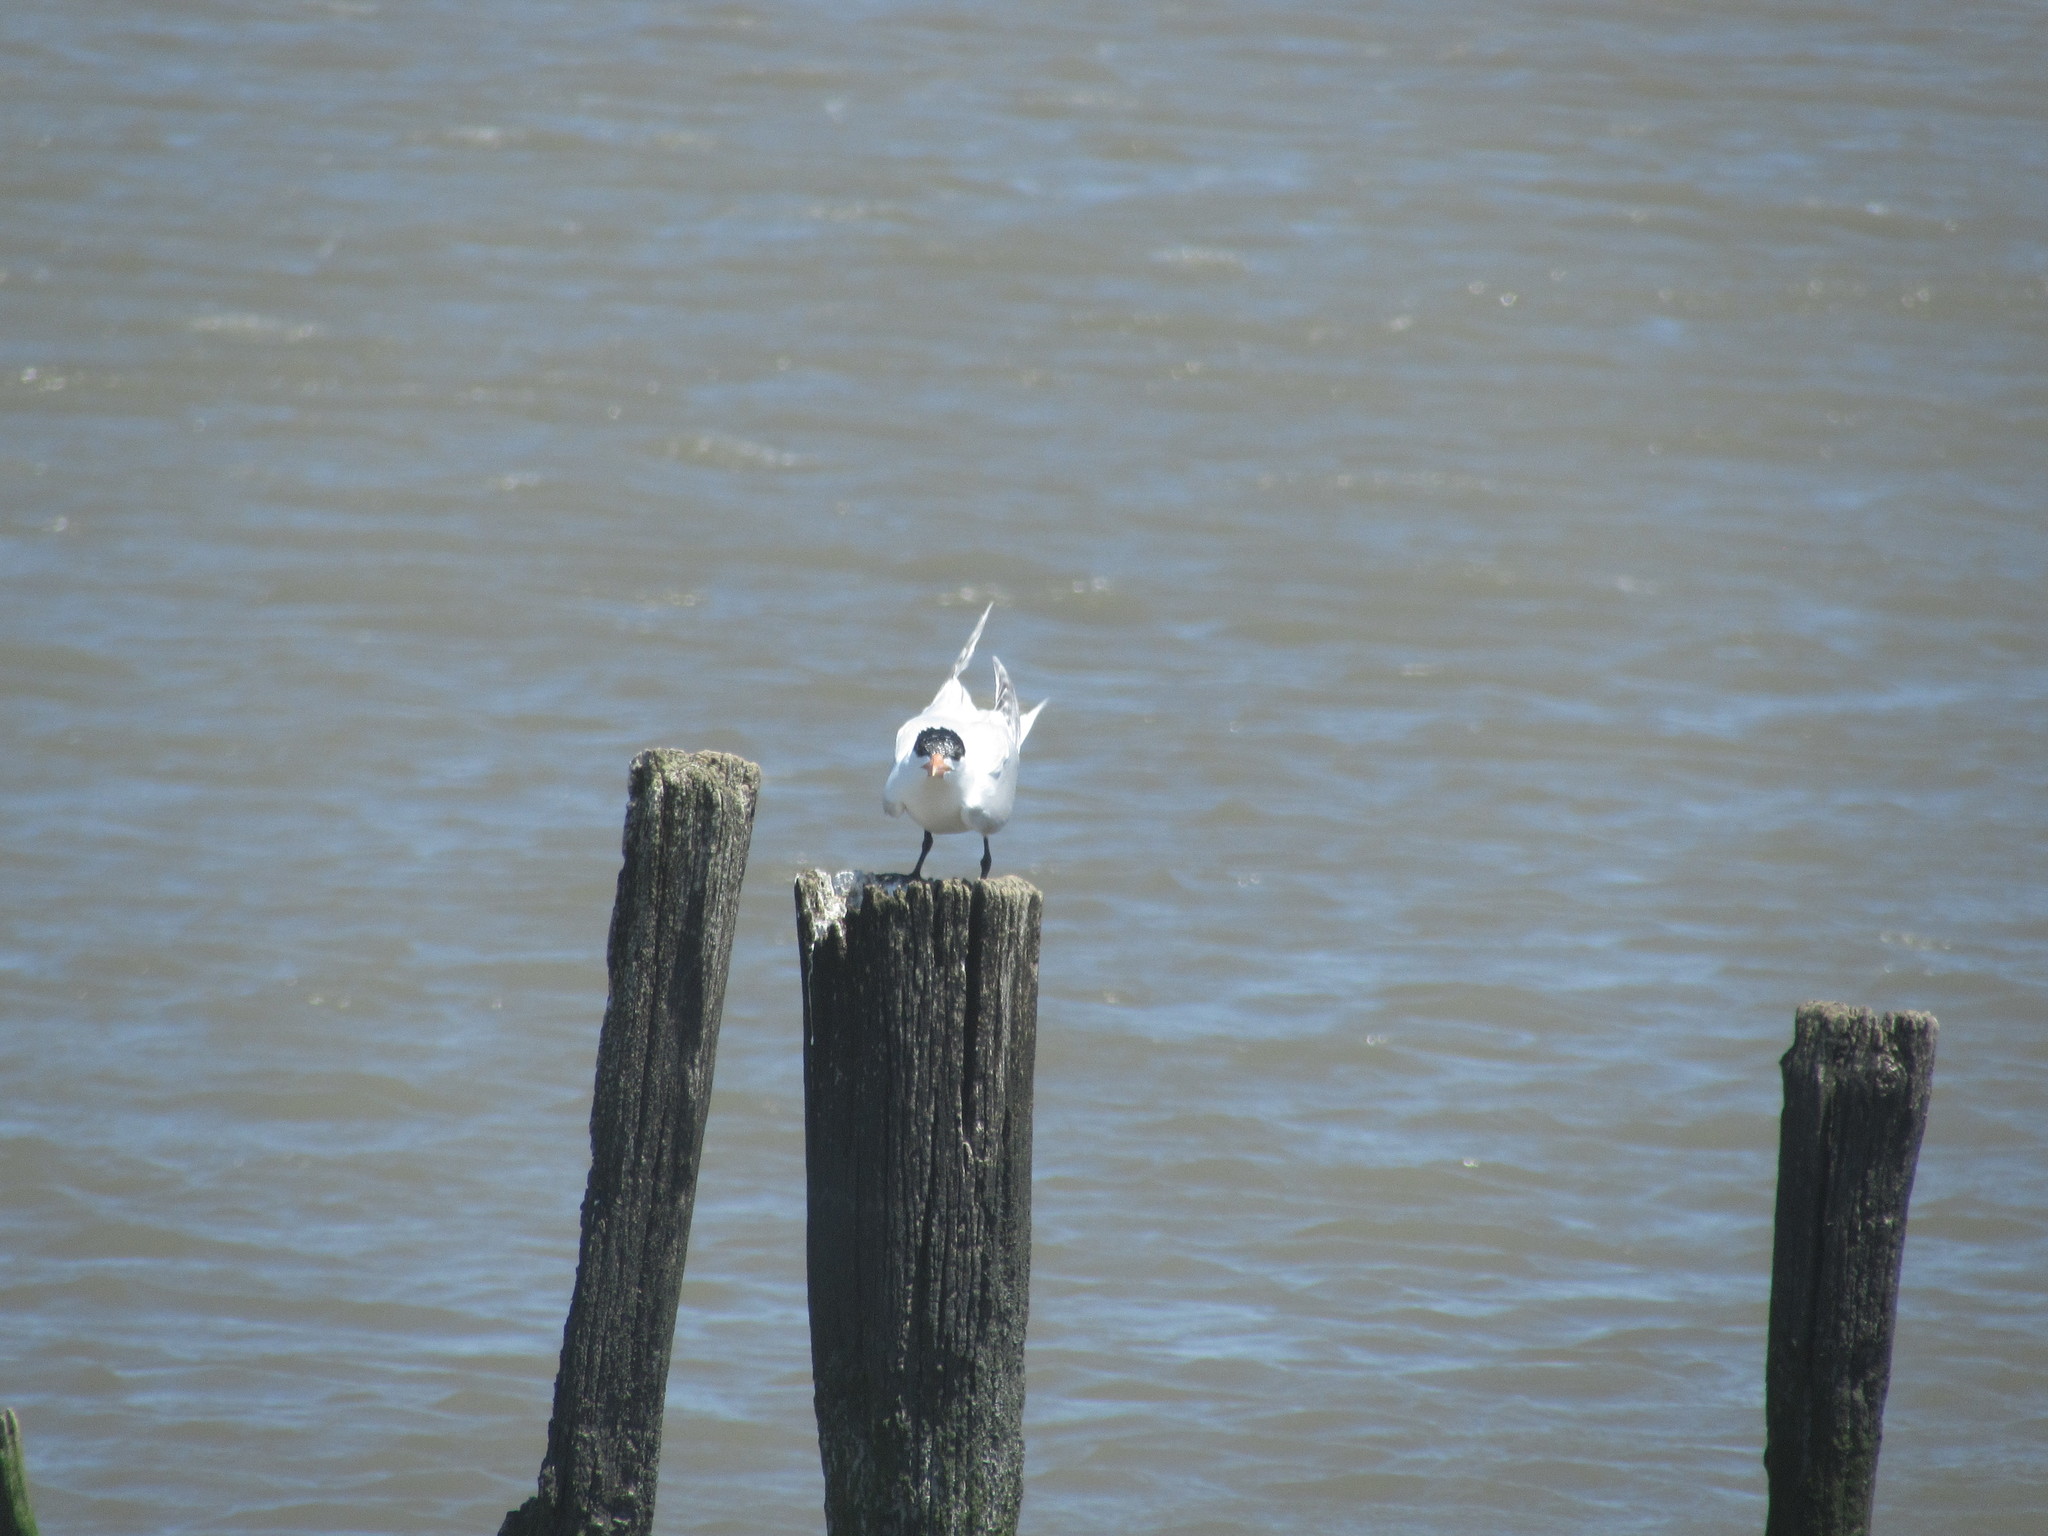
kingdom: Animalia
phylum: Chordata
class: Aves
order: Charadriiformes
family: Laridae
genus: Thalasseus
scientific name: Thalasseus maximus
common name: Royal tern
